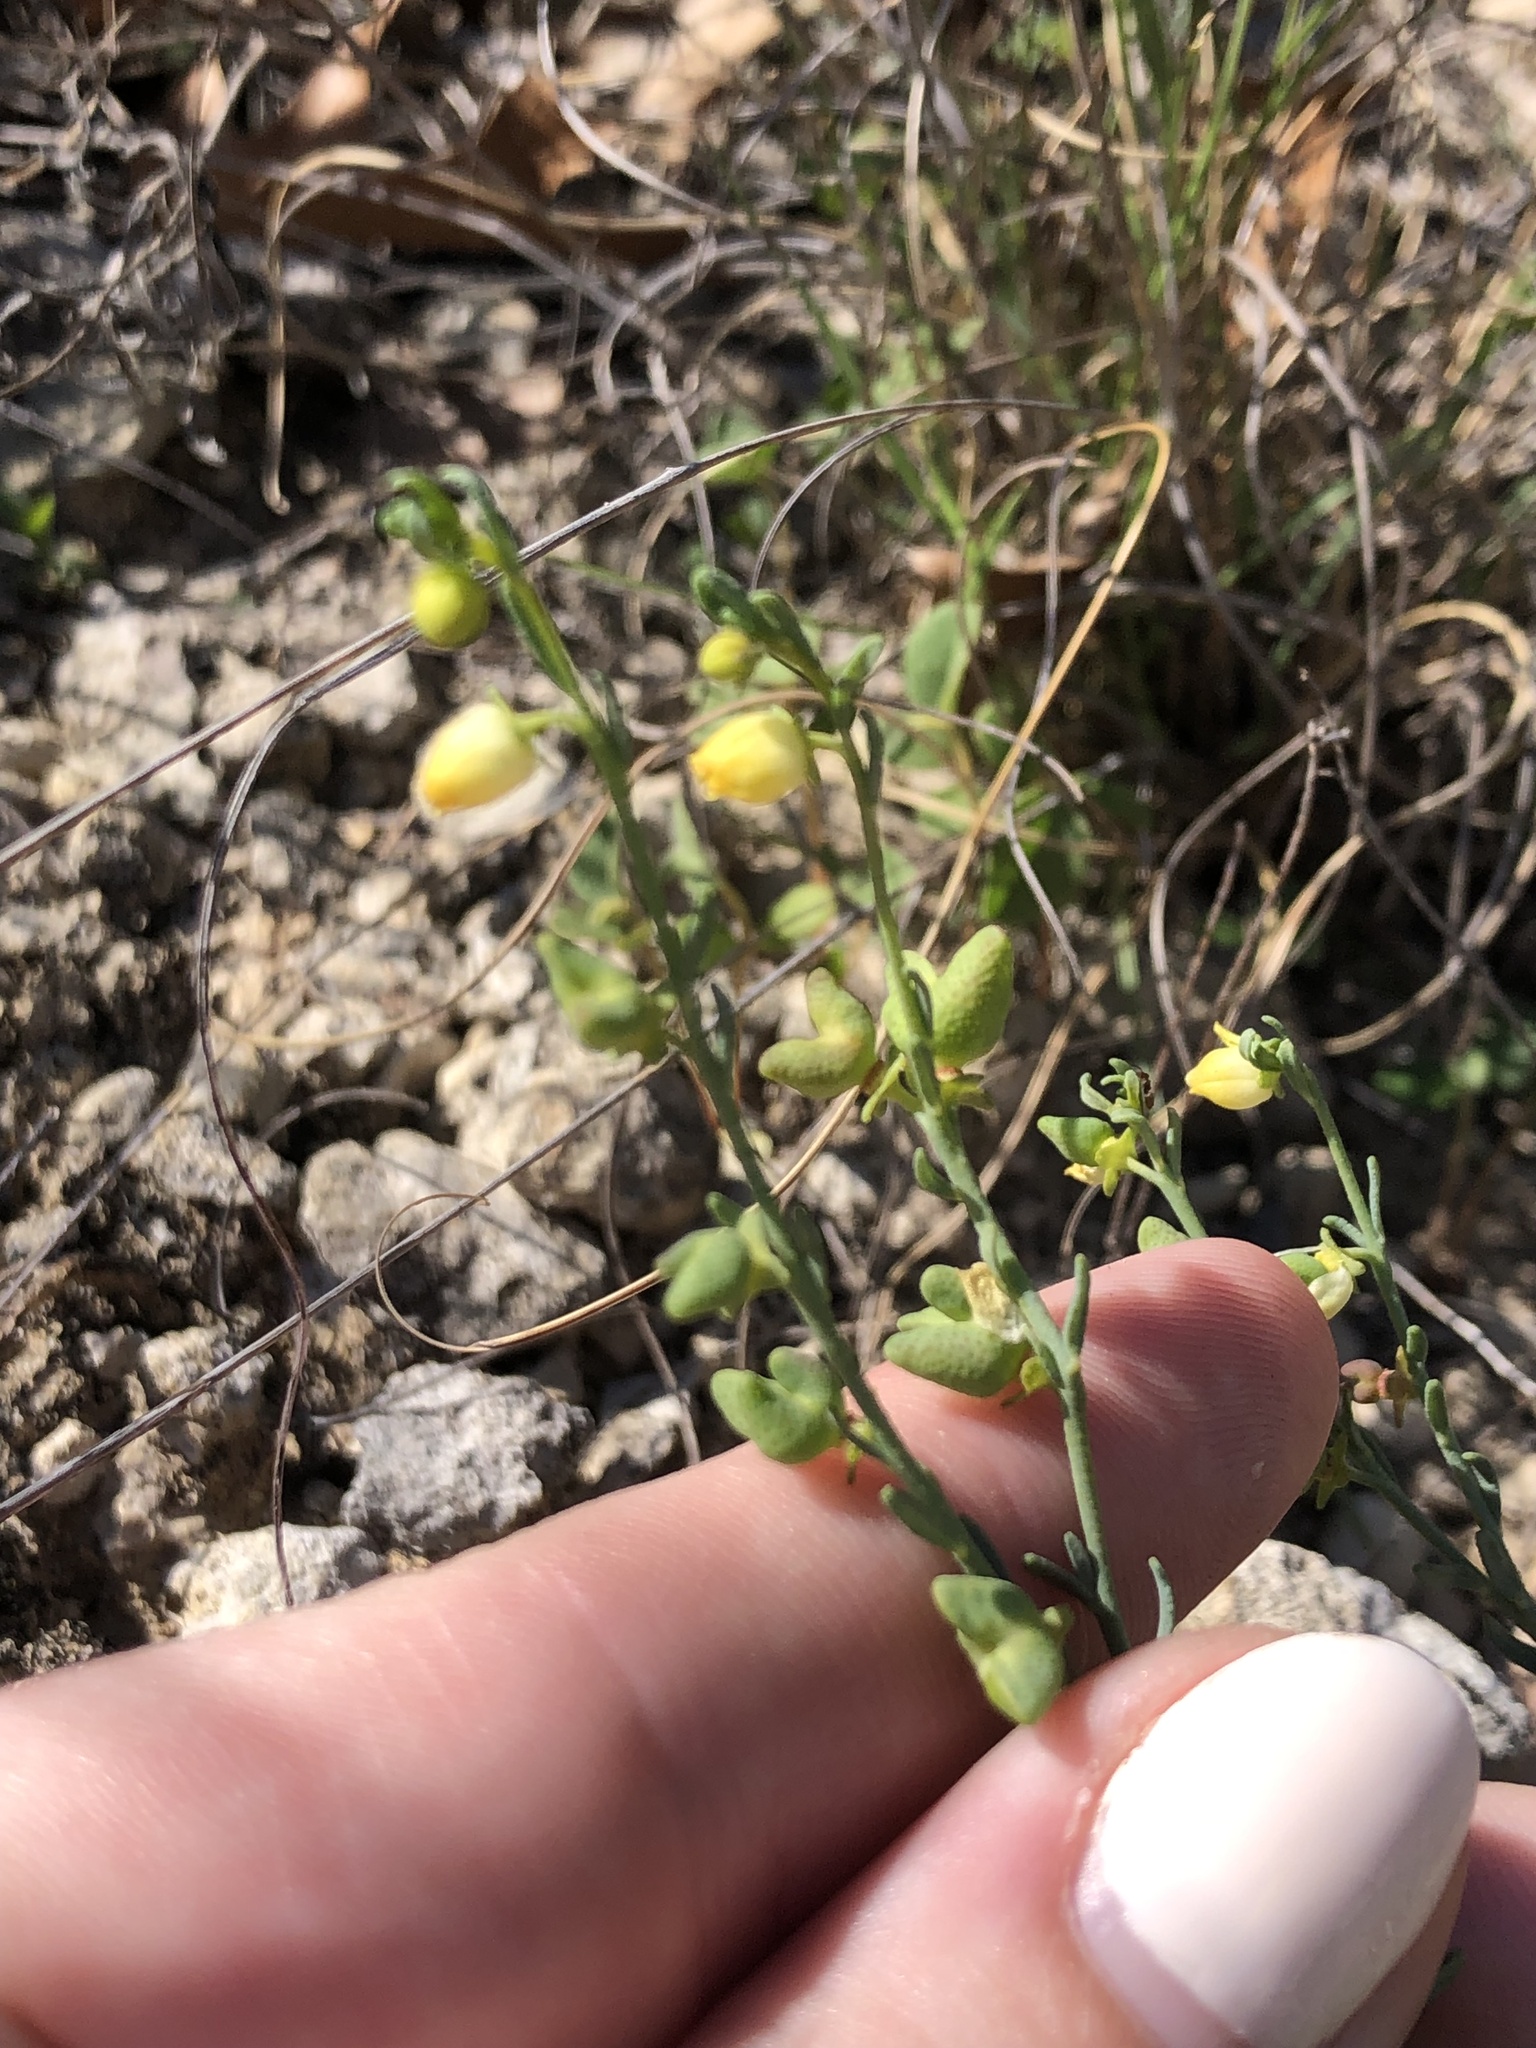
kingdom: Plantae
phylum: Tracheophyta
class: Magnoliopsida
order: Sapindales
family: Rutaceae
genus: Thamnosma
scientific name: Thamnosma texana
